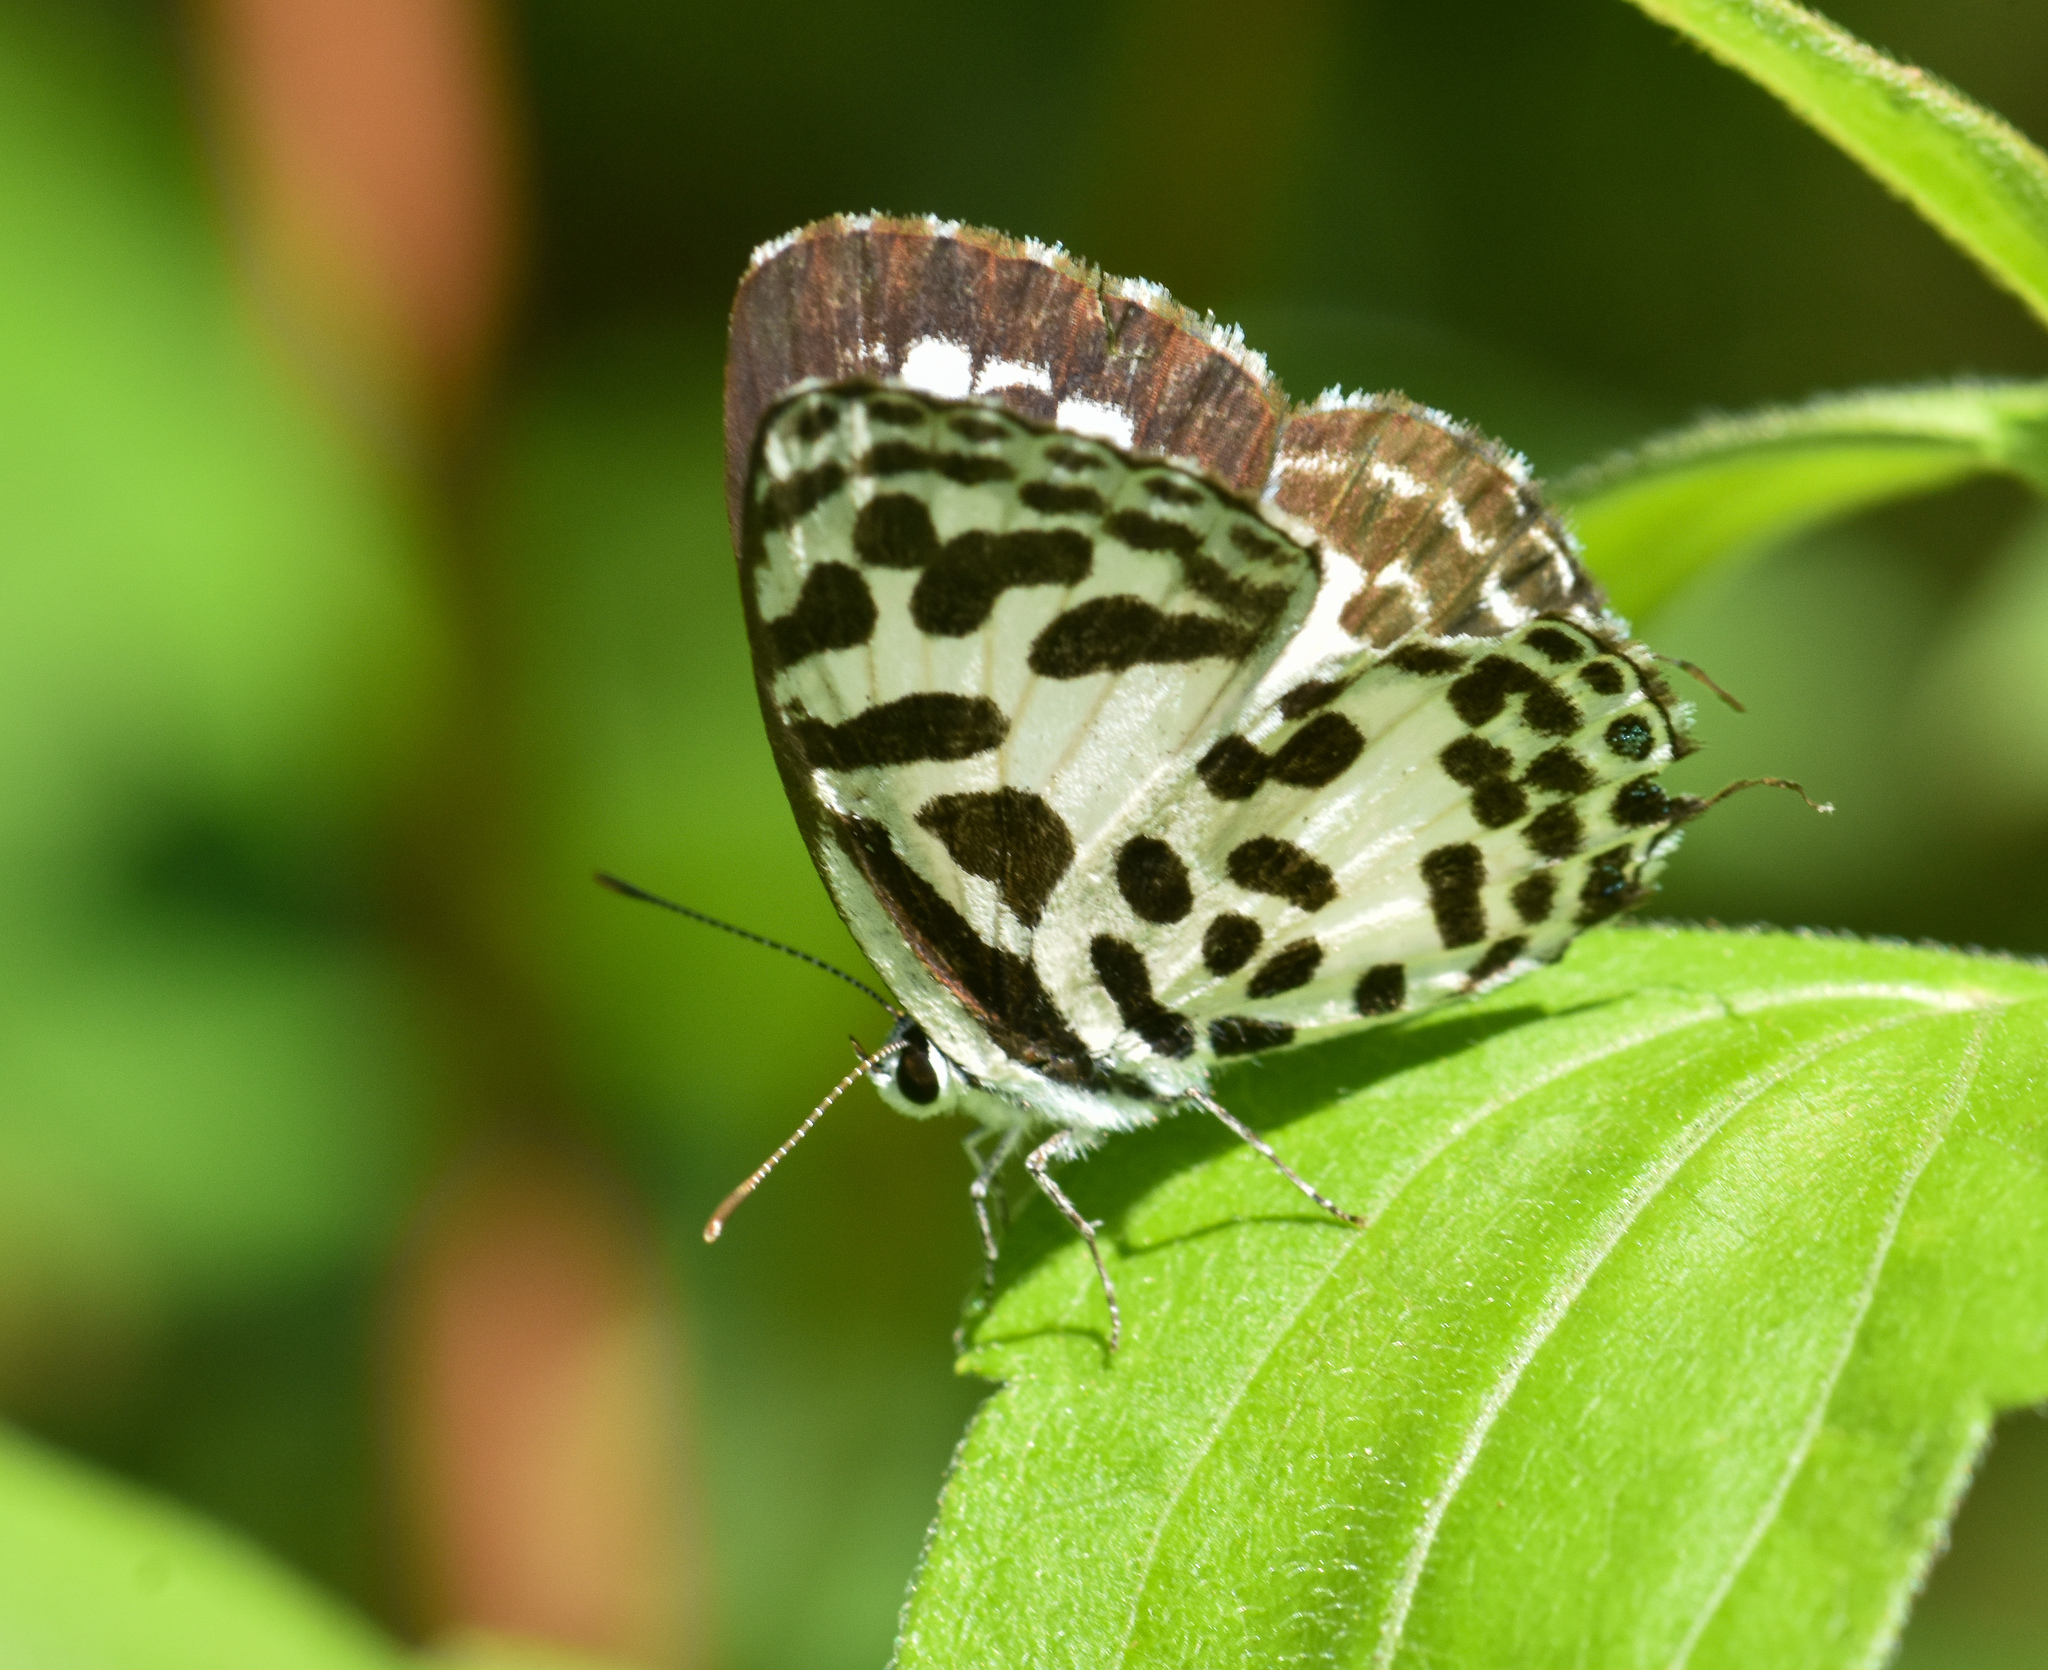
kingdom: Animalia
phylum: Arthropoda
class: Insecta
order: Lepidoptera
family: Lycaenidae
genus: Castalius
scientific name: Castalius rosimon
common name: Common pierrot
